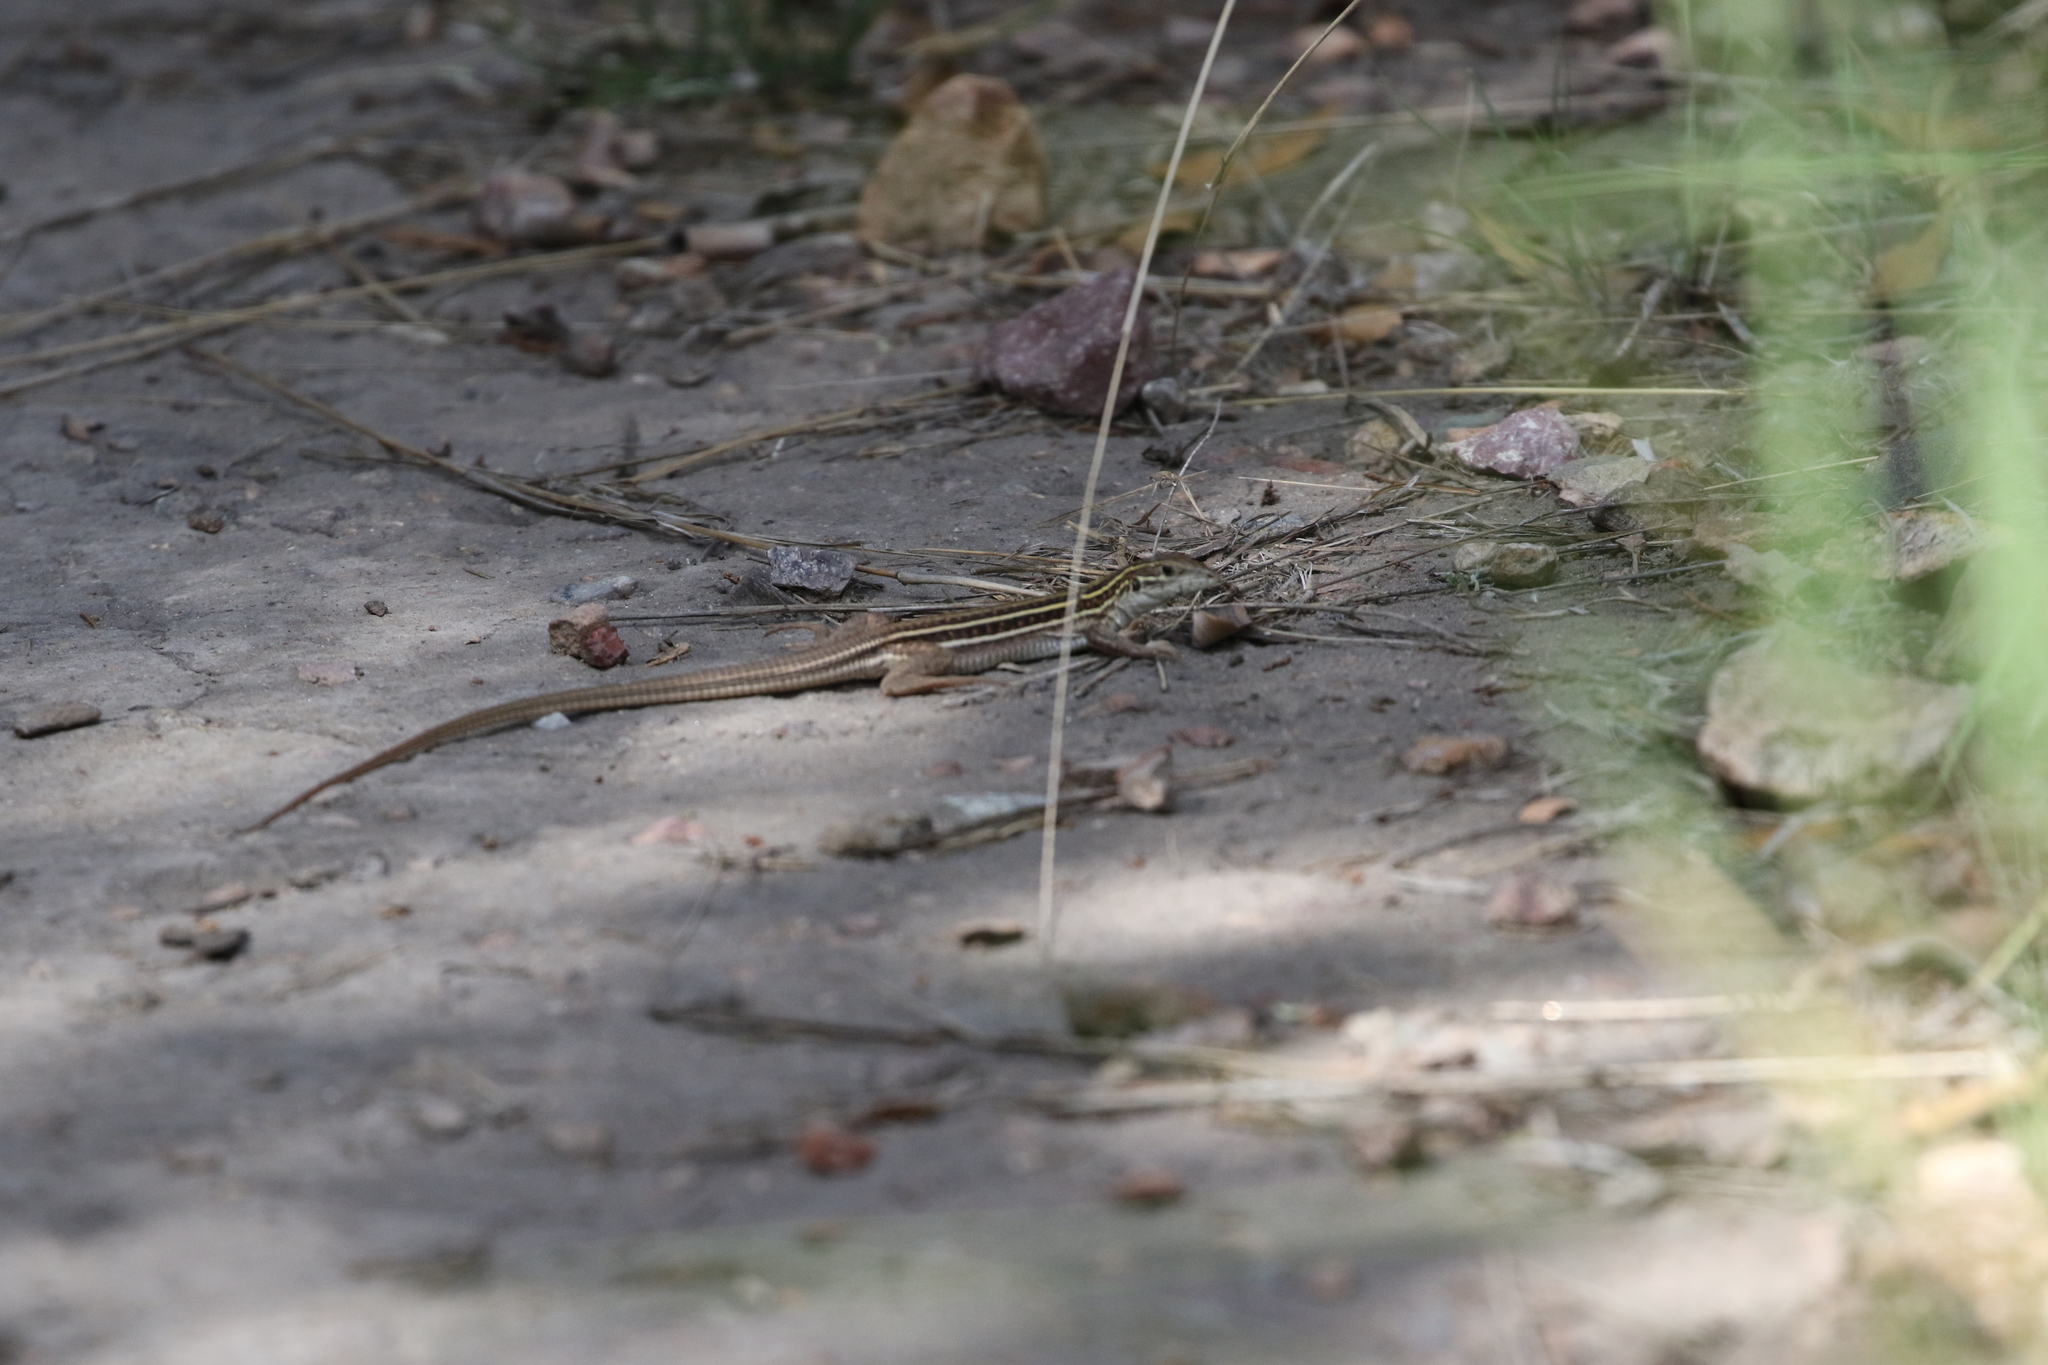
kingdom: Animalia
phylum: Chordata
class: Squamata
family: Teiidae
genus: Aspidoscelis
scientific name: Aspidoscelis sonorae
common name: Sonoran spotted whiptail
